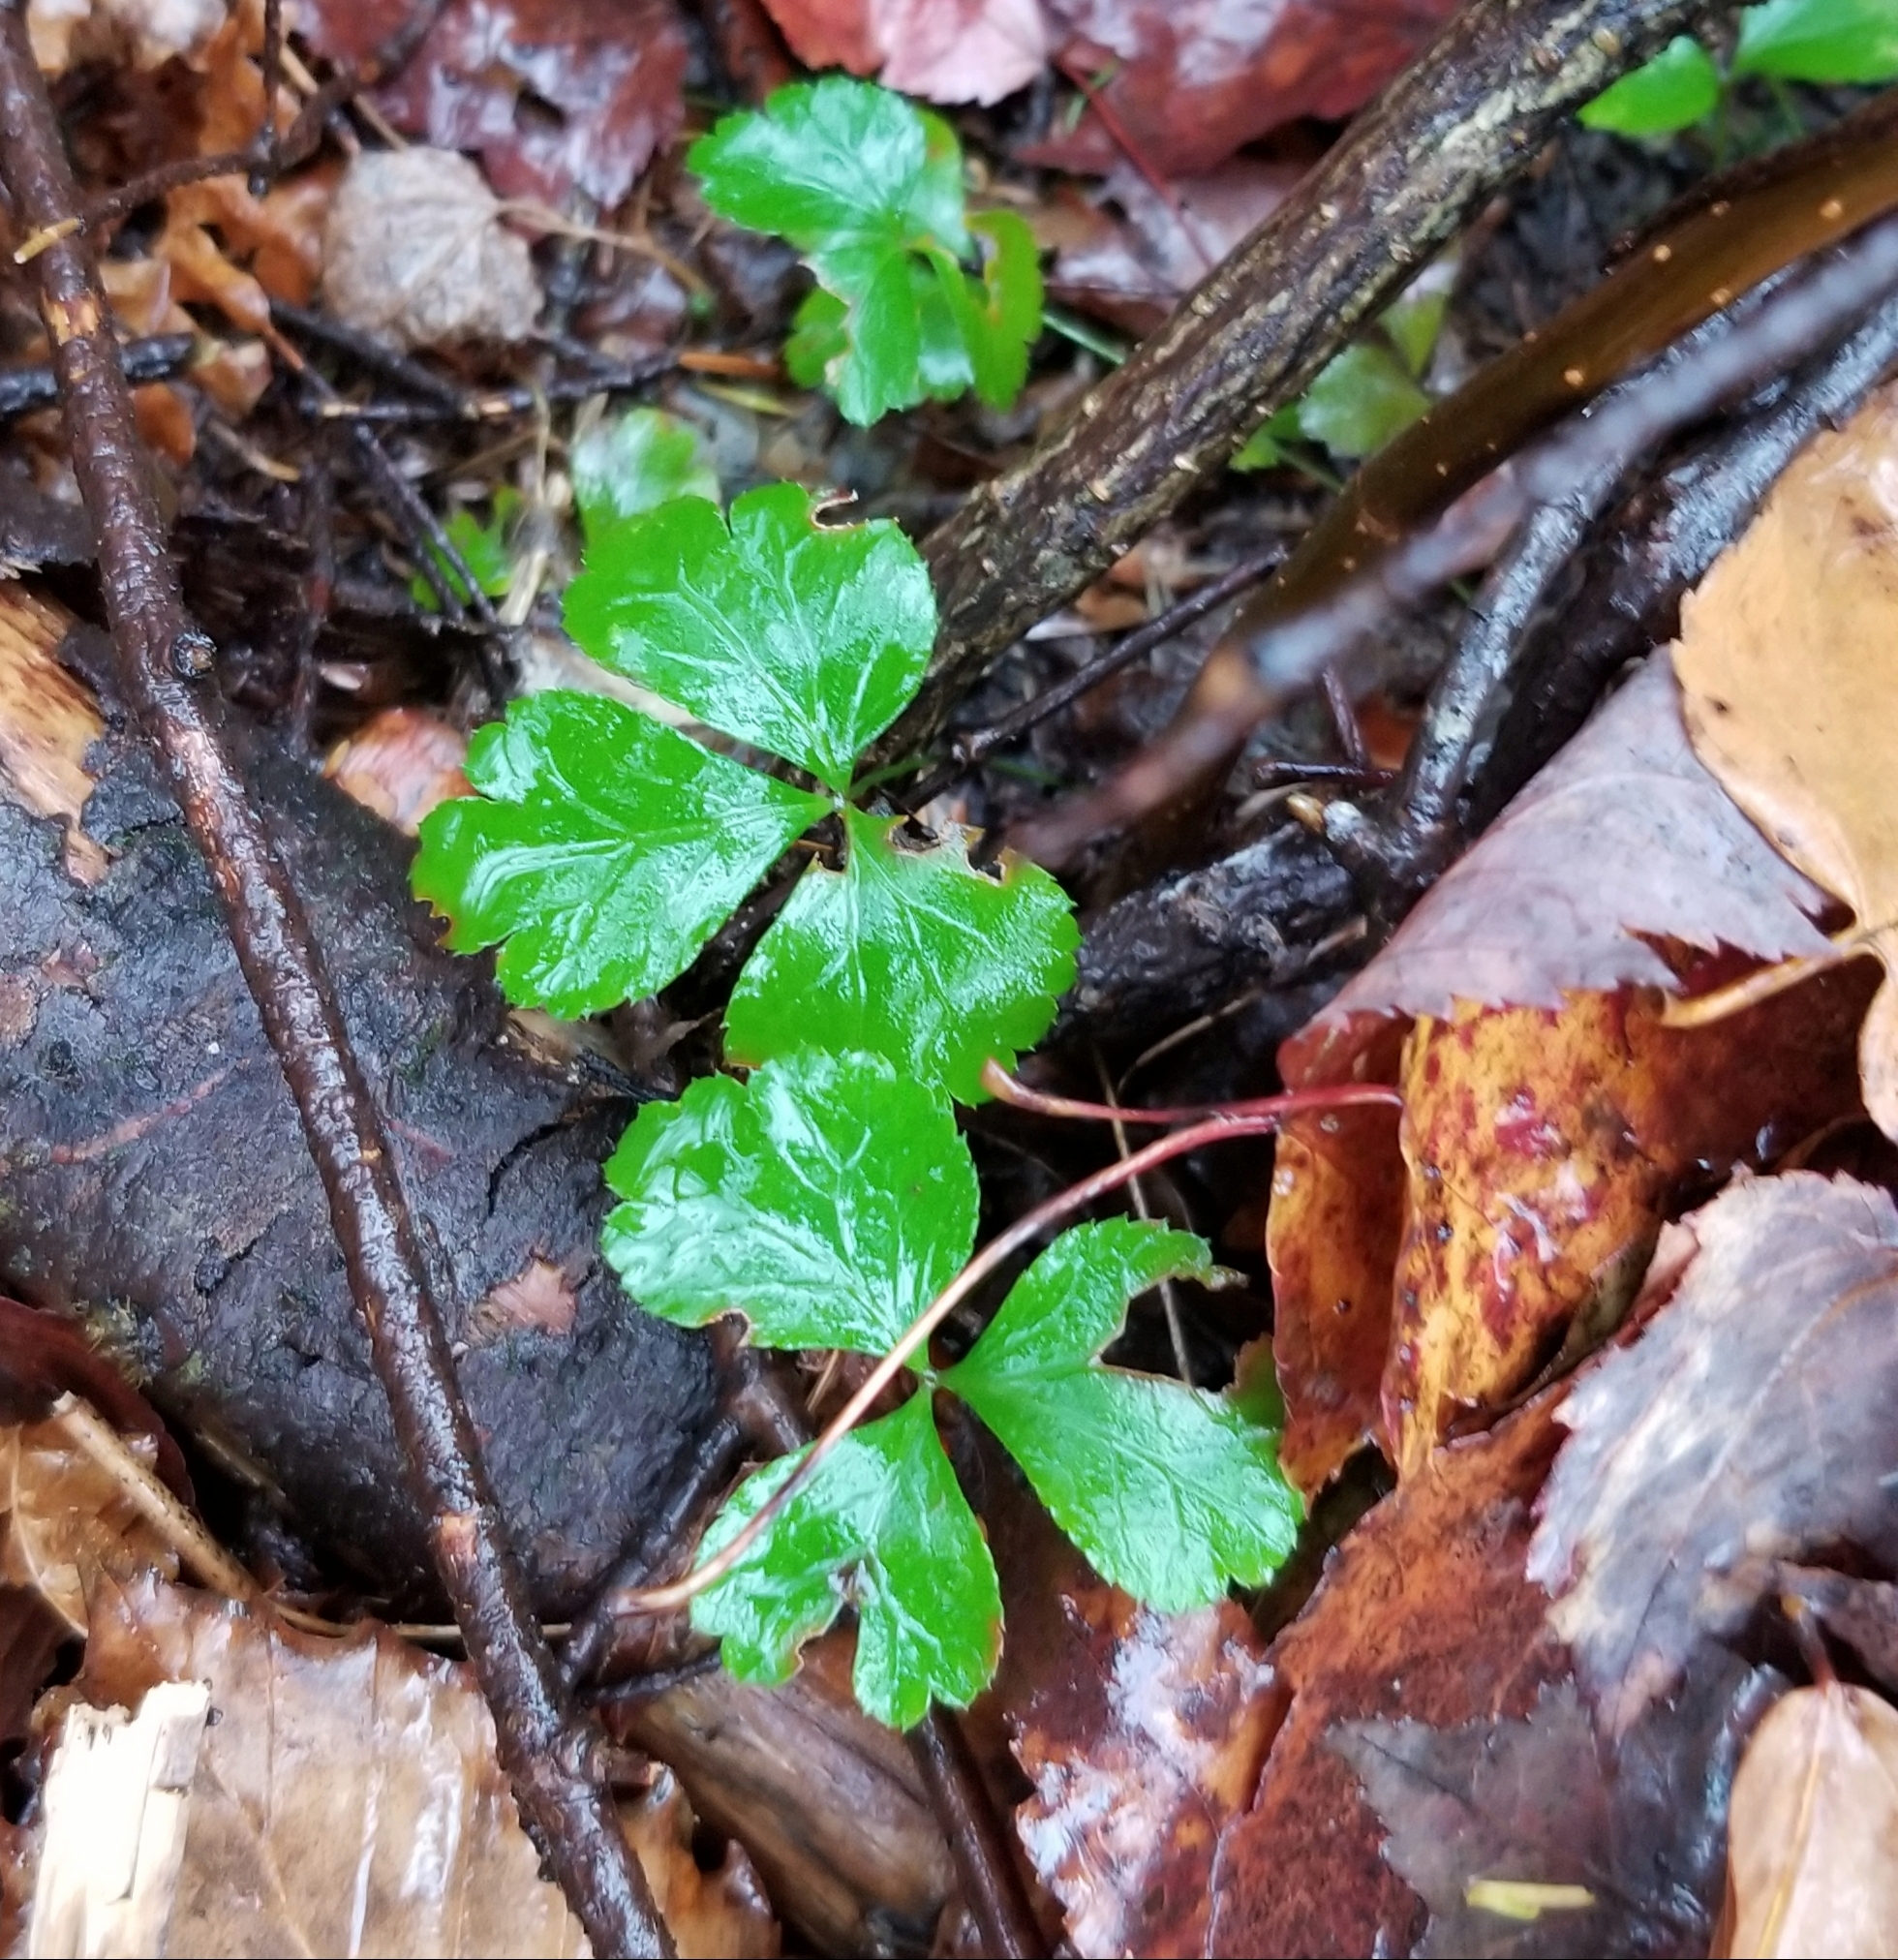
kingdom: Plantae
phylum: Tracheophyta
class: Magnoliopsida
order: Ranunculales
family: Ranunculaceae
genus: Coptis
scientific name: Coptis trifolia
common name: Canker-root
